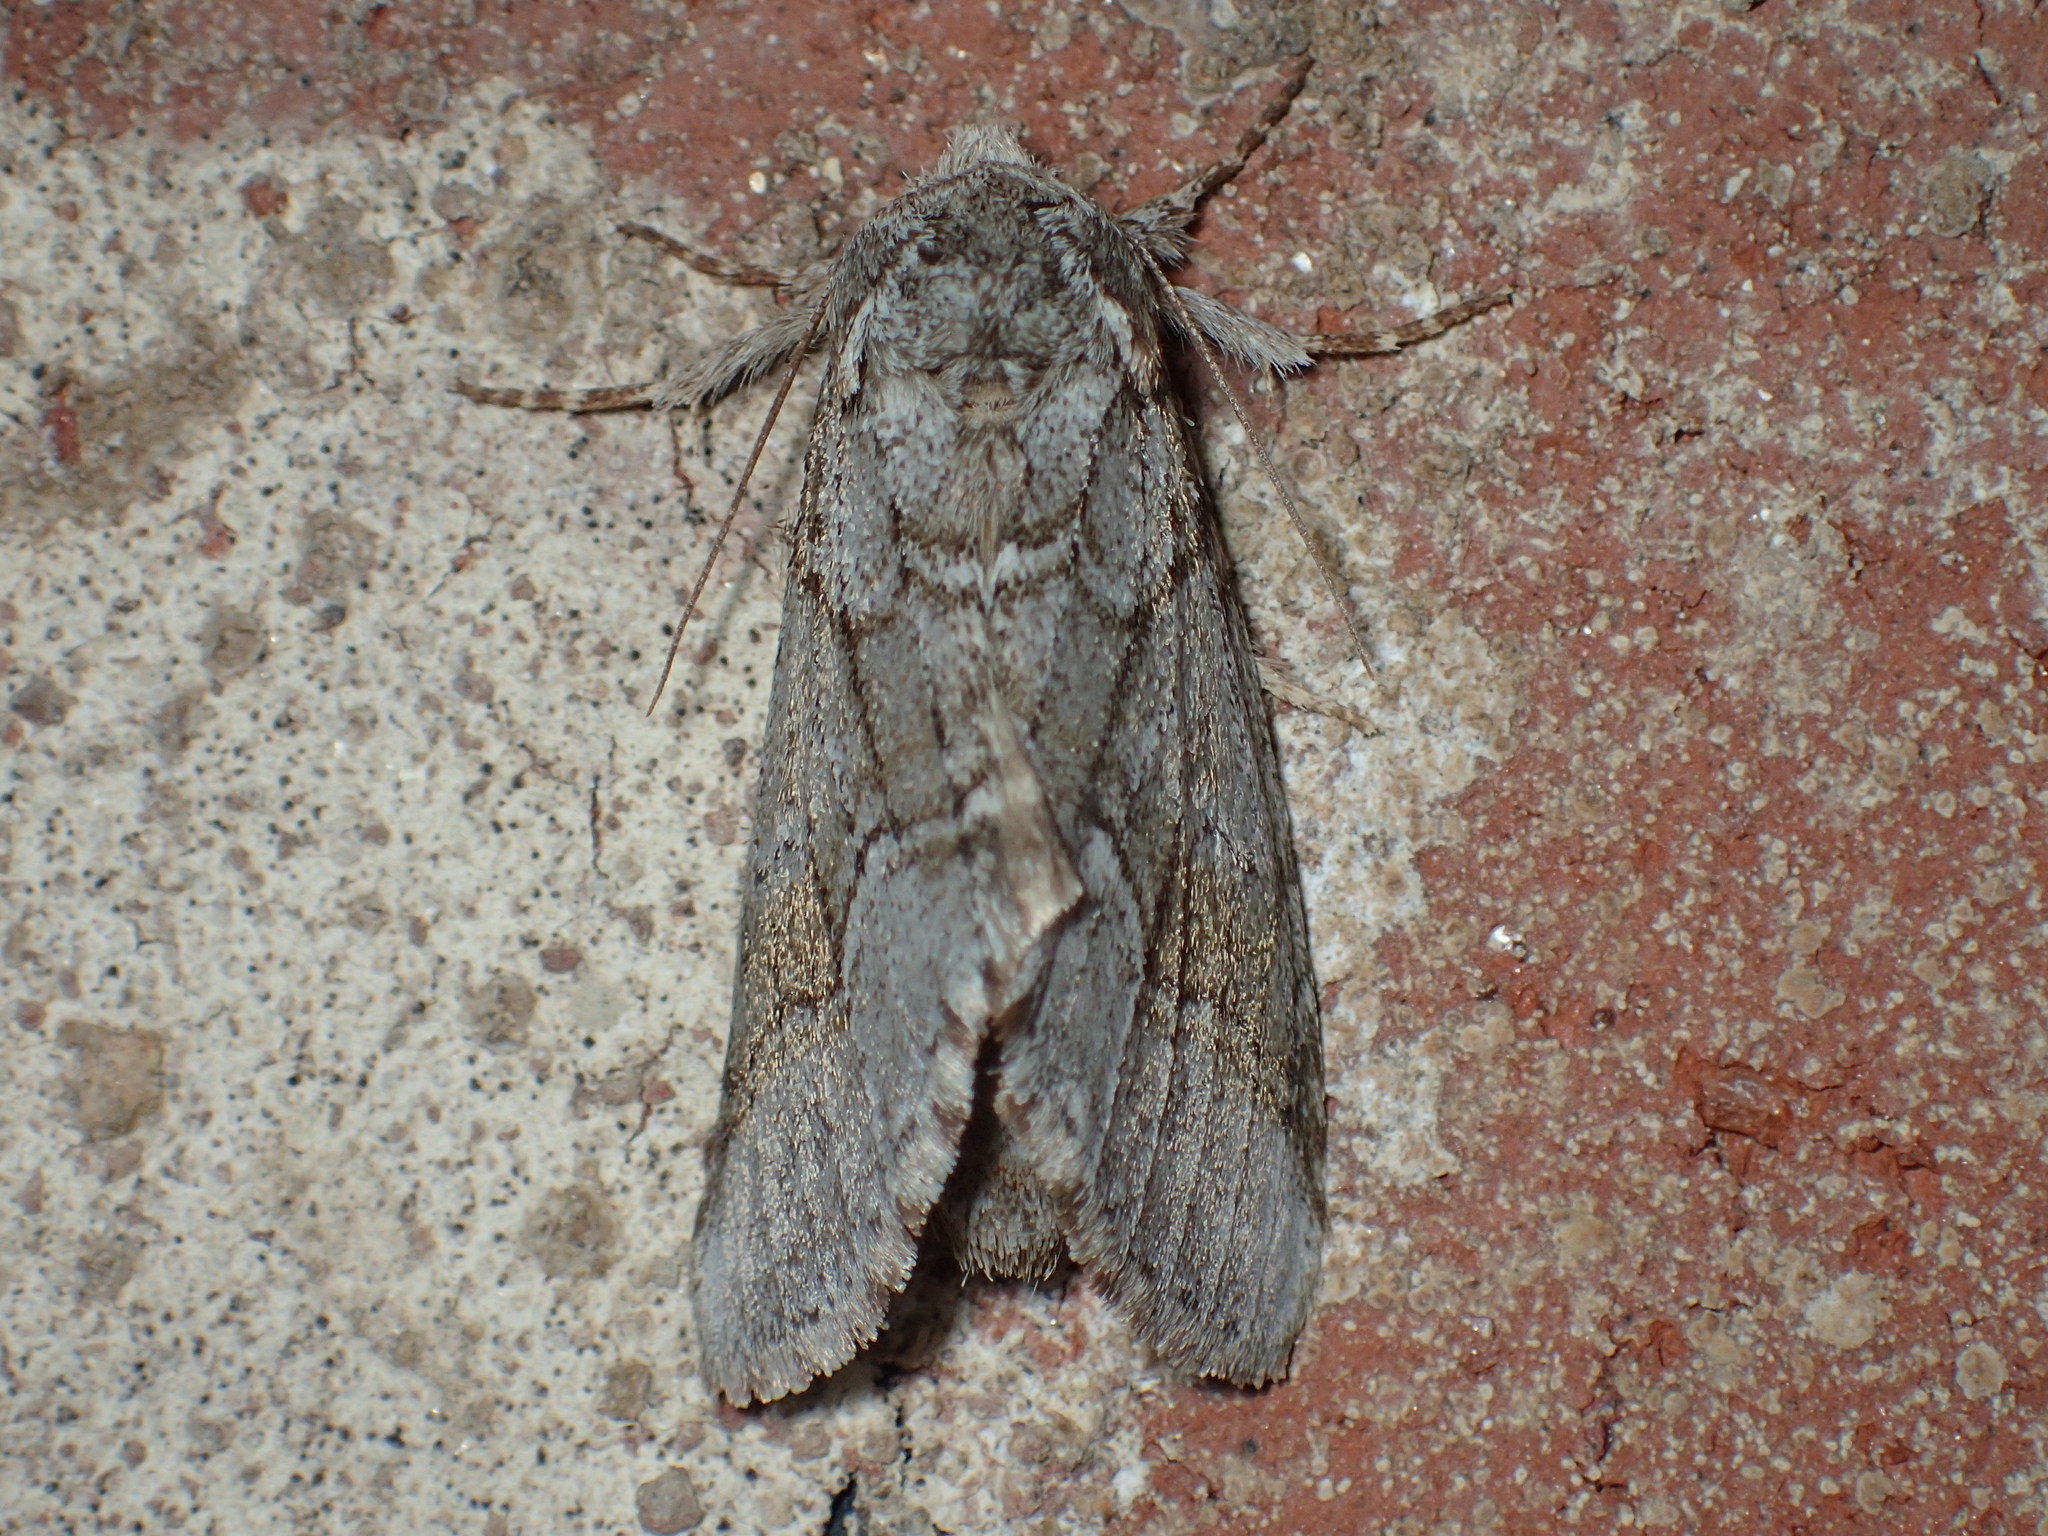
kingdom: Animalia
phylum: Arthropoda
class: Insecta
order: Lepidoptera
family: Notodontidae
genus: Lochmaeus
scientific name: Lochmaeus bilineata
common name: Double-lined prominent
